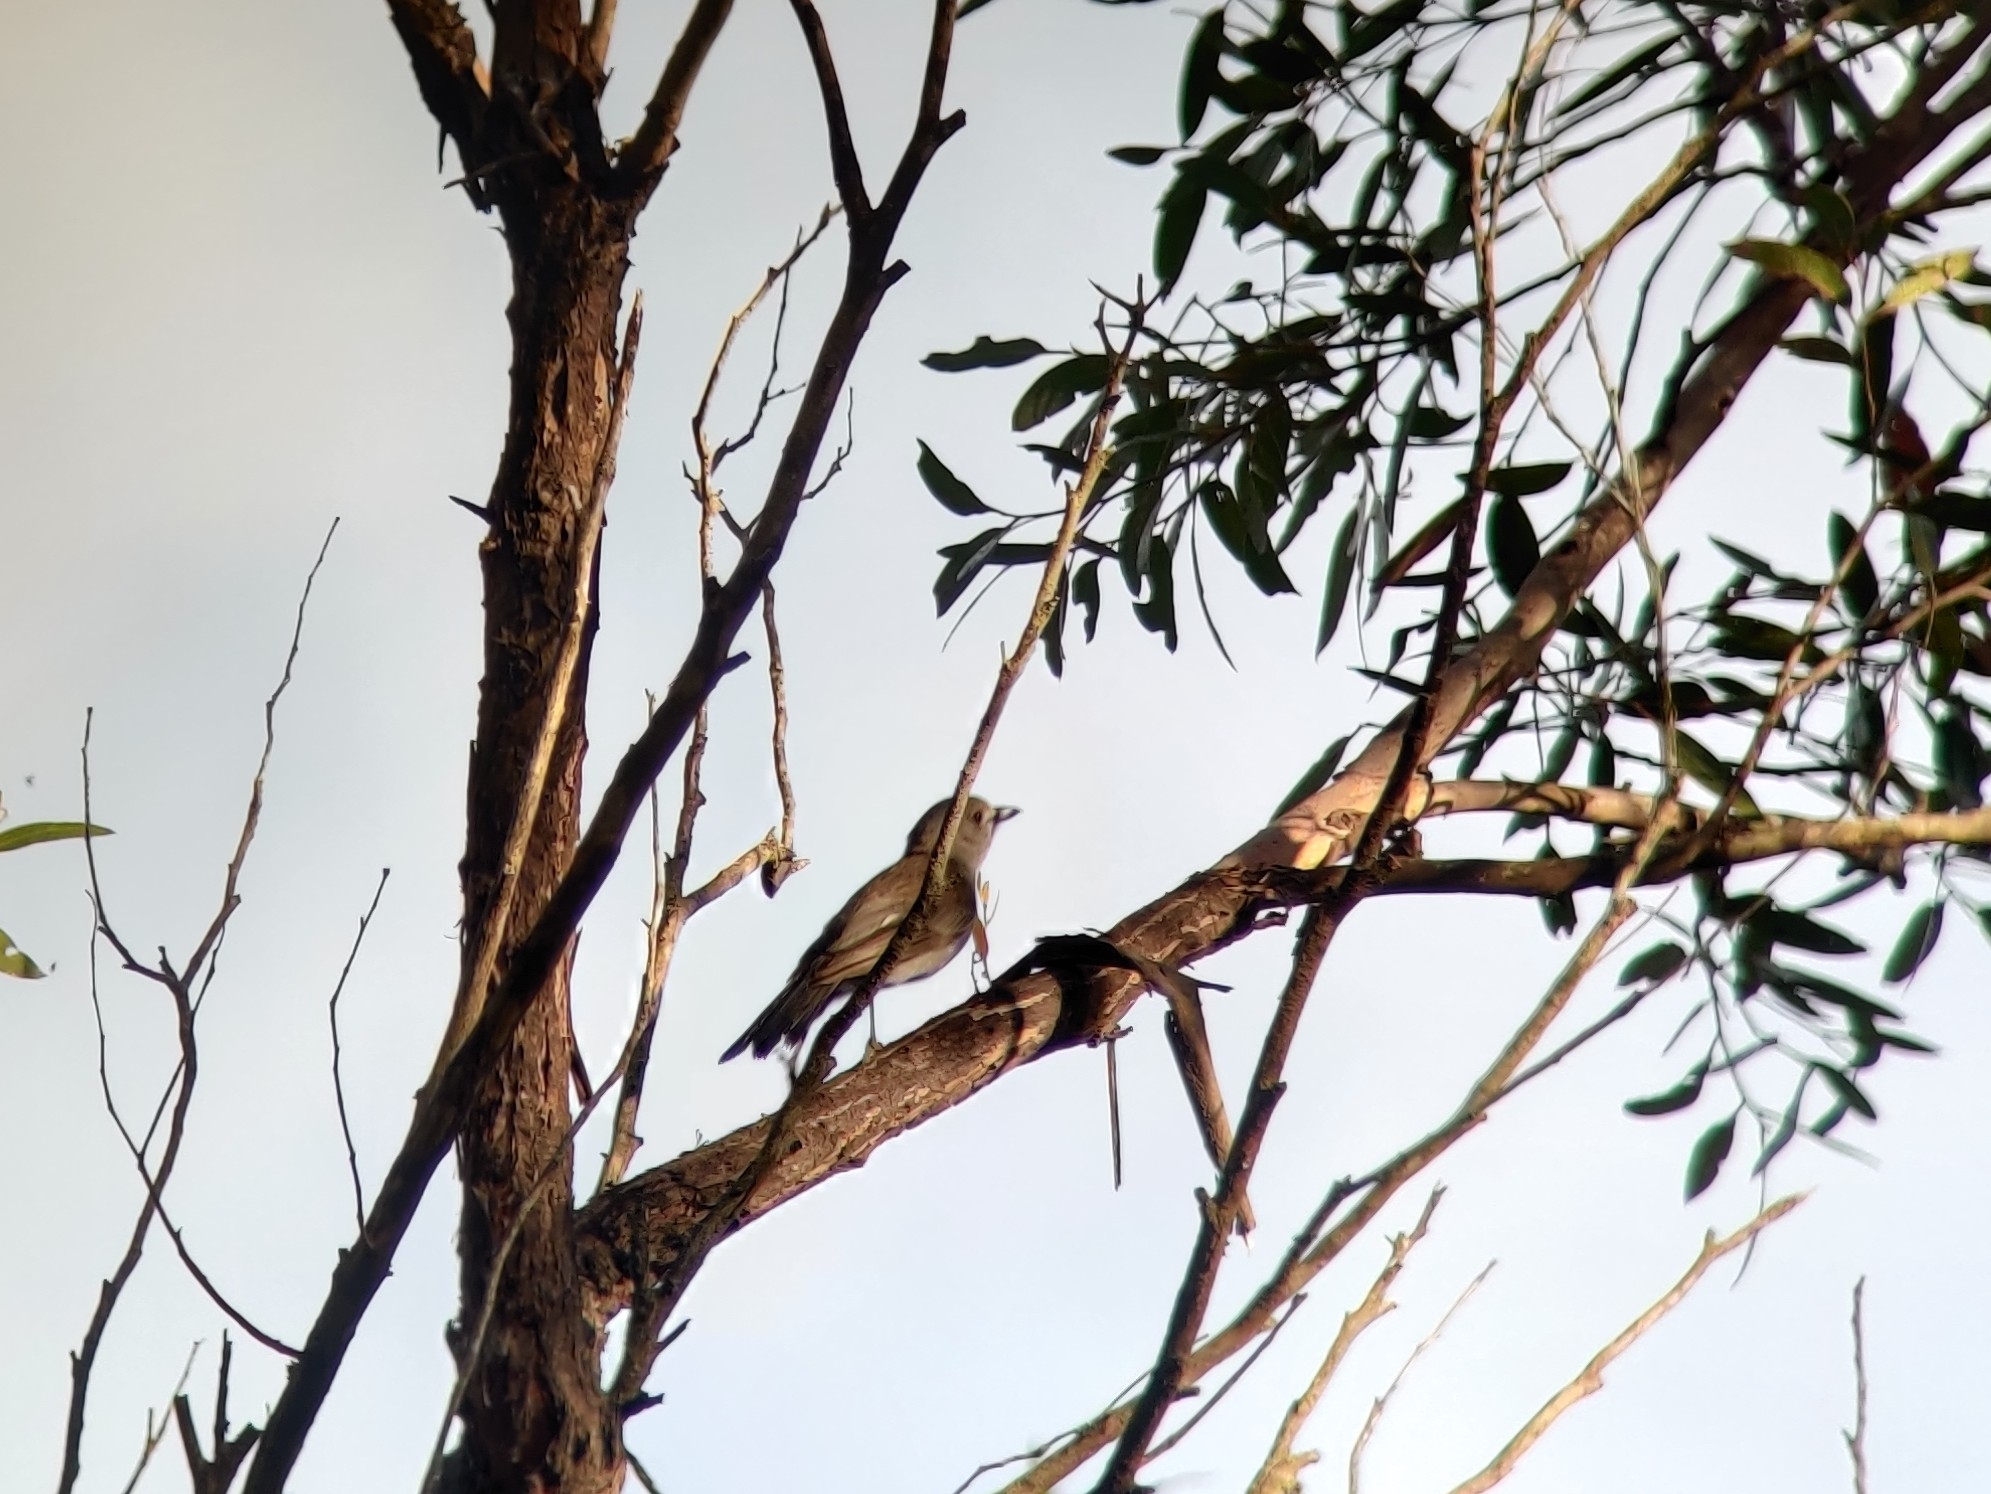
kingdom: Animalia
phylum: Chordata
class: Aves
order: Passeriformes
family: Pachycephalidae
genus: Colluricincla
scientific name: Colluricincla harmonica
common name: Grey shrikethrush
